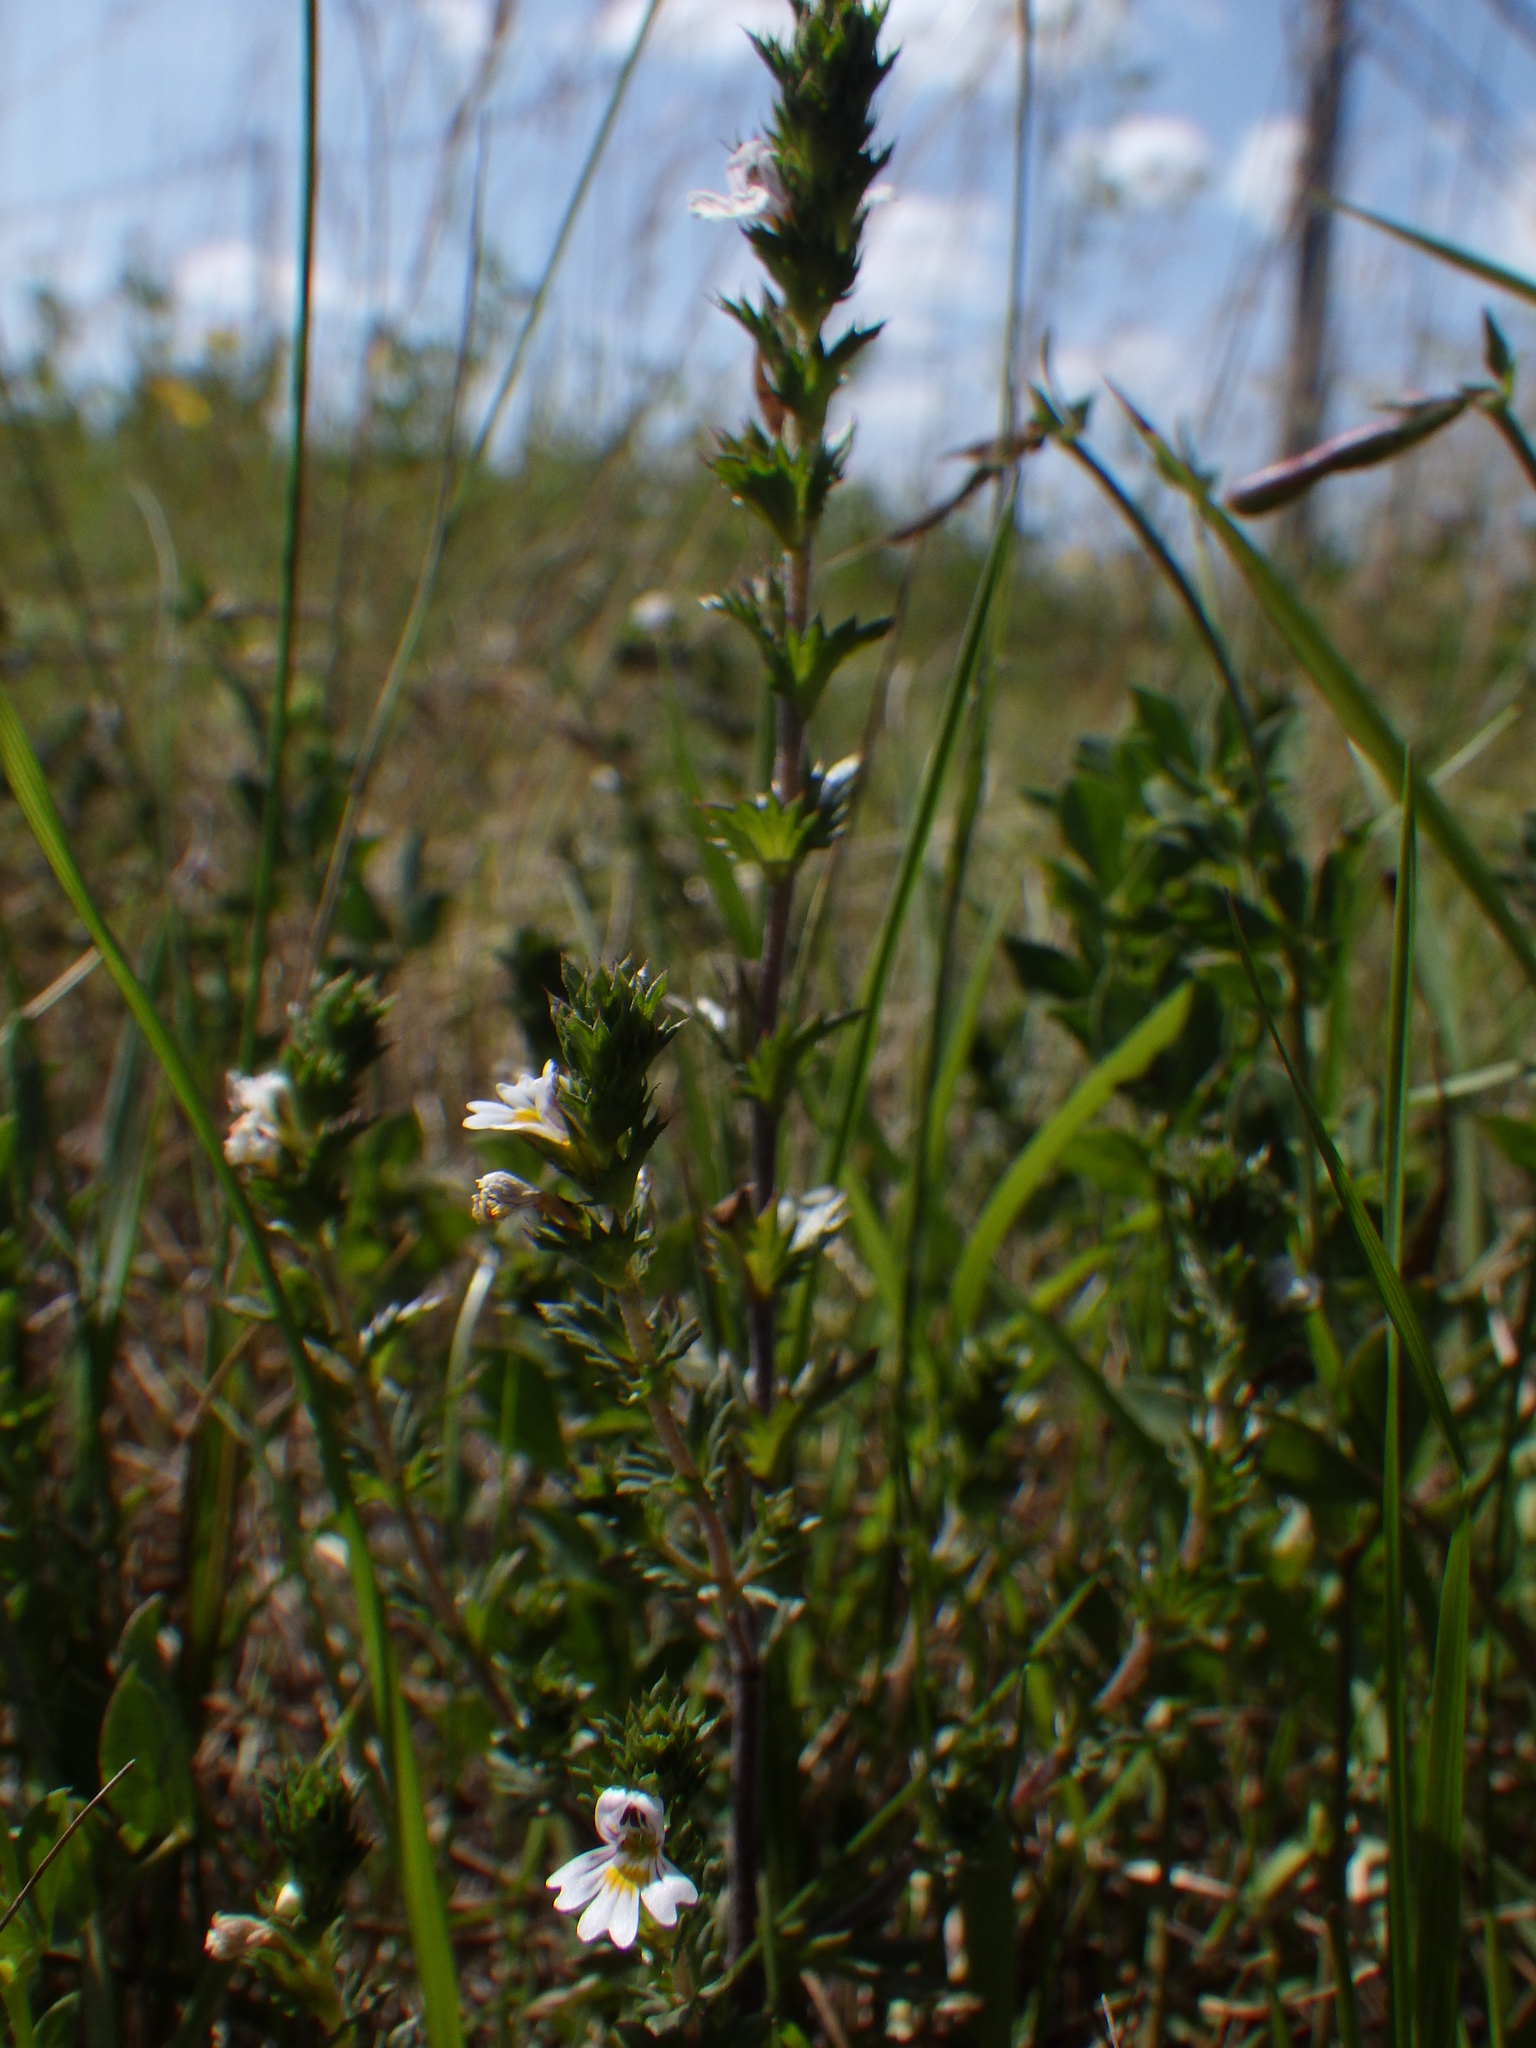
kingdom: Plantae
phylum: Tracheophyta
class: Magnoliopsida
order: Lamiales
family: Orobanchaceae
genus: Euphrasia
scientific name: Euphrasia nemorosa
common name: Common eyebright
